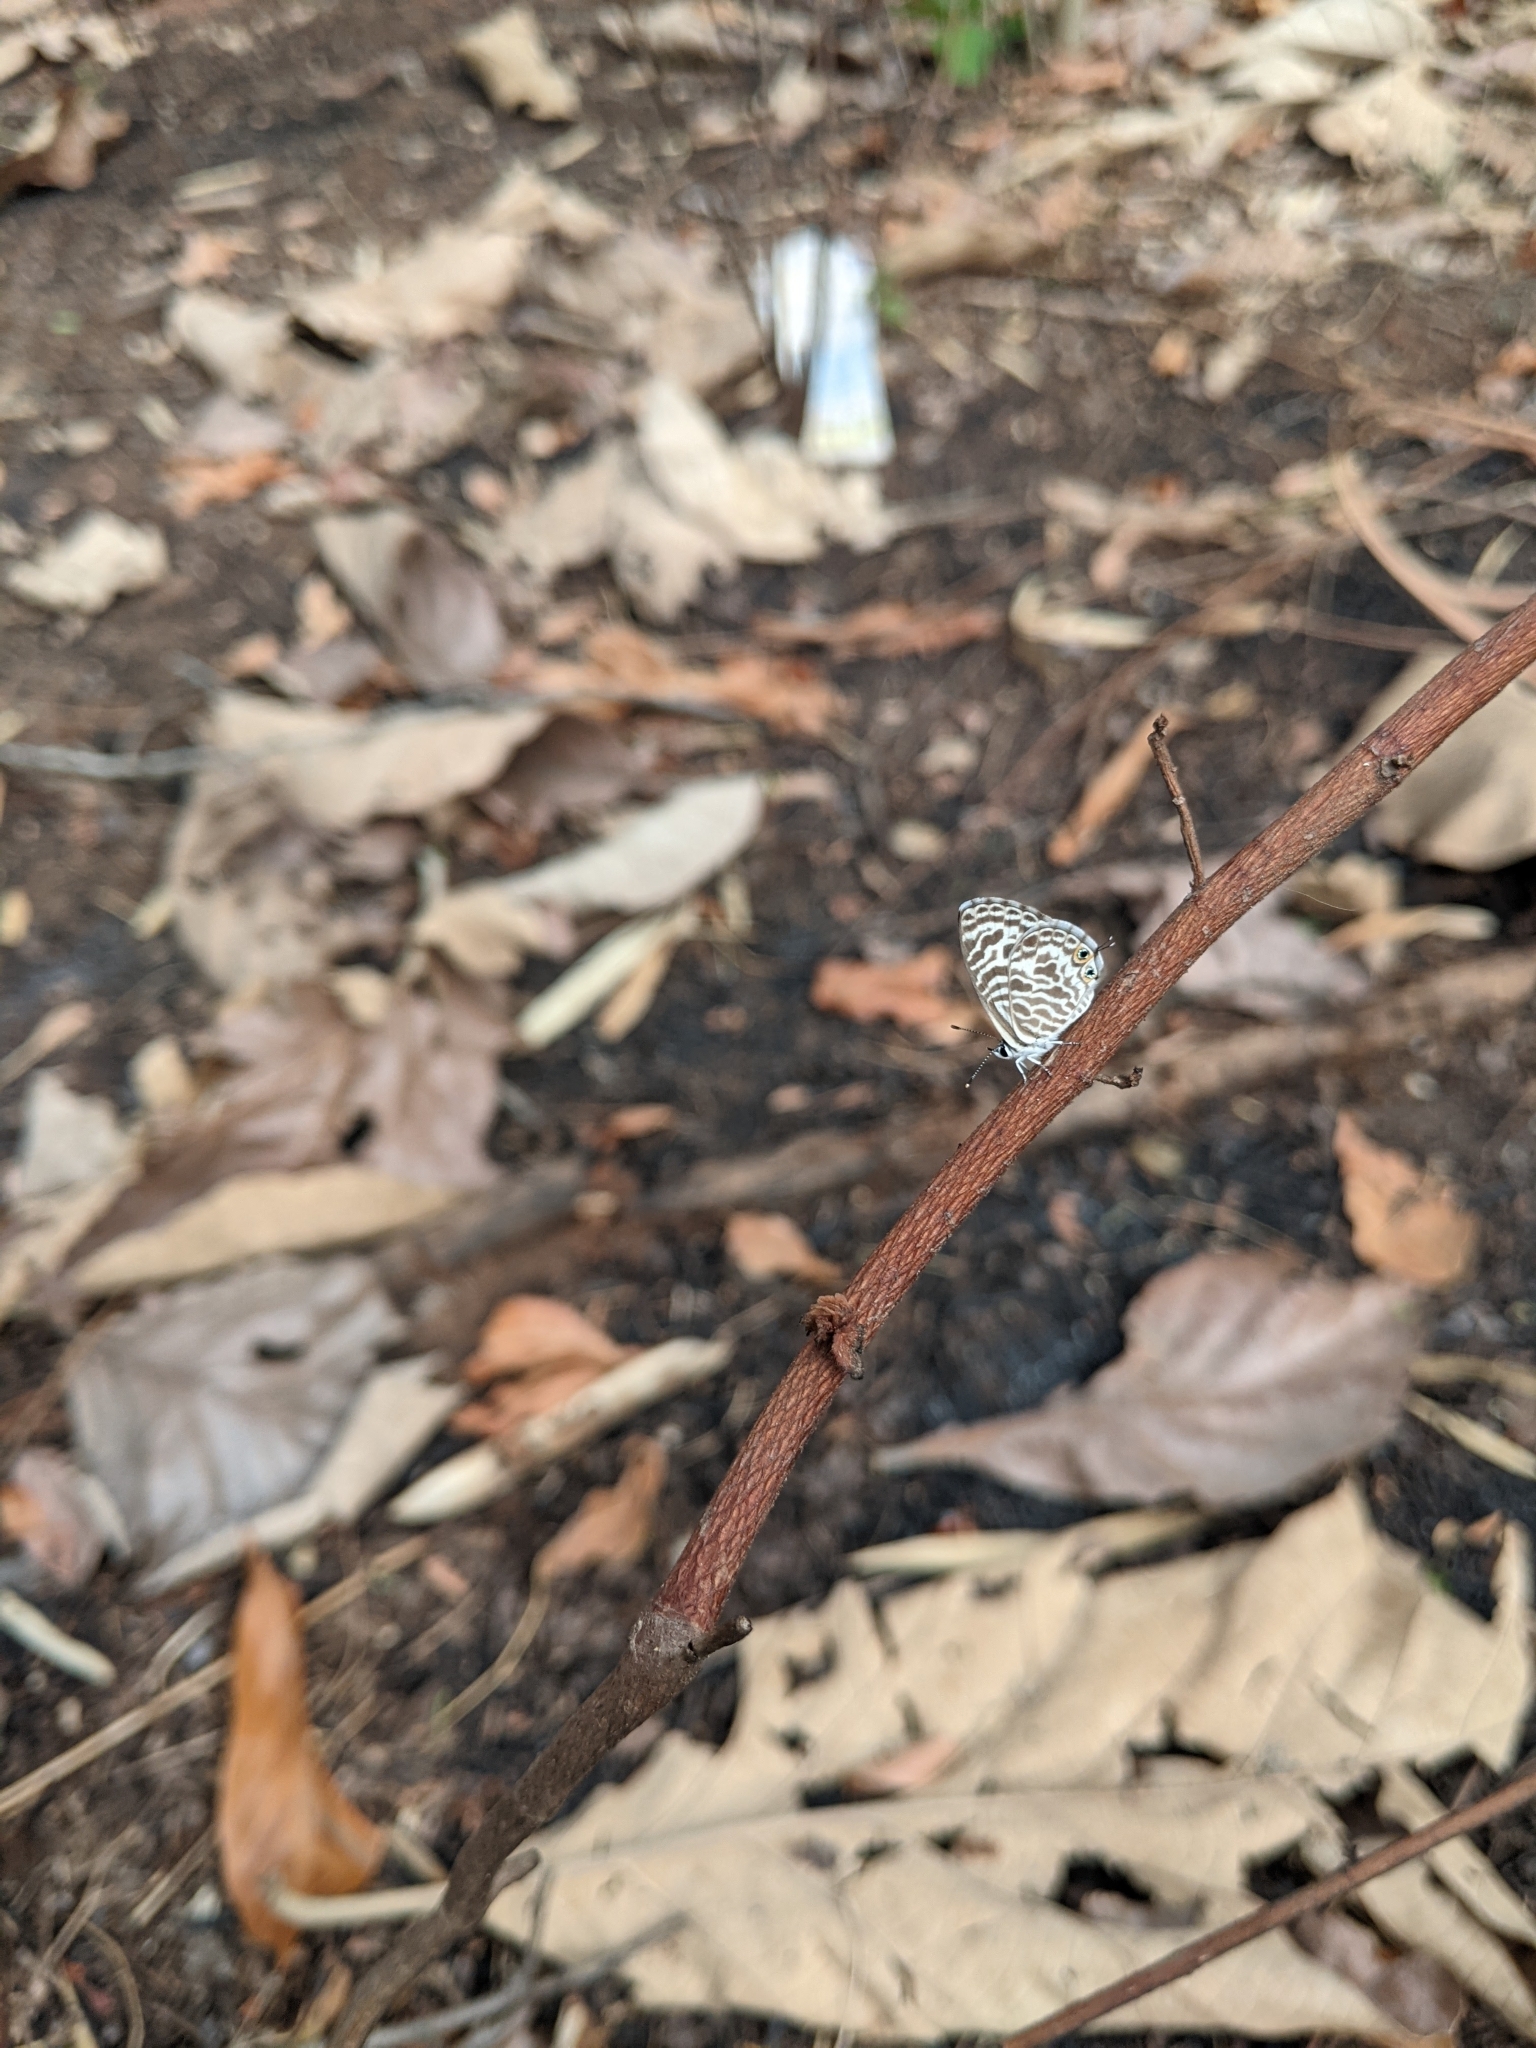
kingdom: Animalia
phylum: Arthropoda
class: Insecta
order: Lepidoptera
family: Lycaenidae
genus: Leptotes
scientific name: Leptotes plinius
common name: Zebra blue
